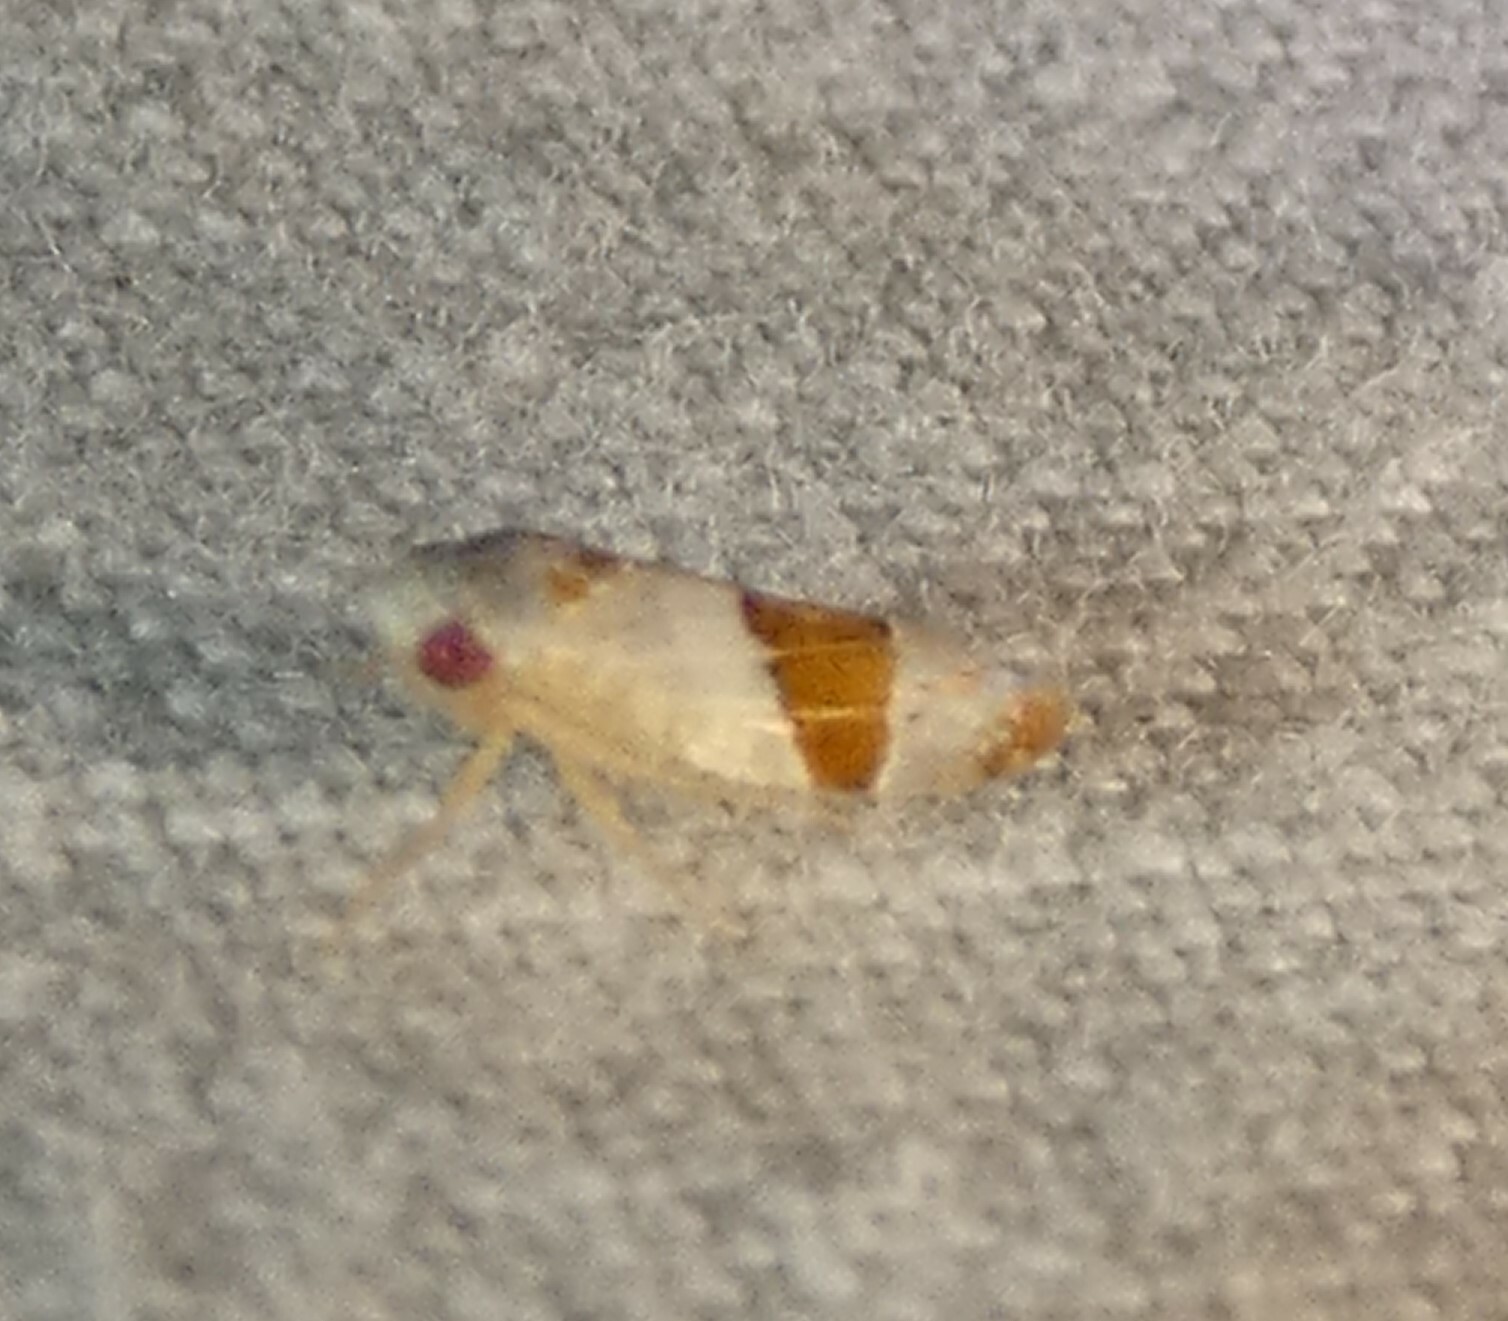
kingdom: Animalia
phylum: Arthropoda
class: Insecta
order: Hemiptera
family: Cicadellidae
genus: Norvellina
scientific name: Norvellina seminuda
